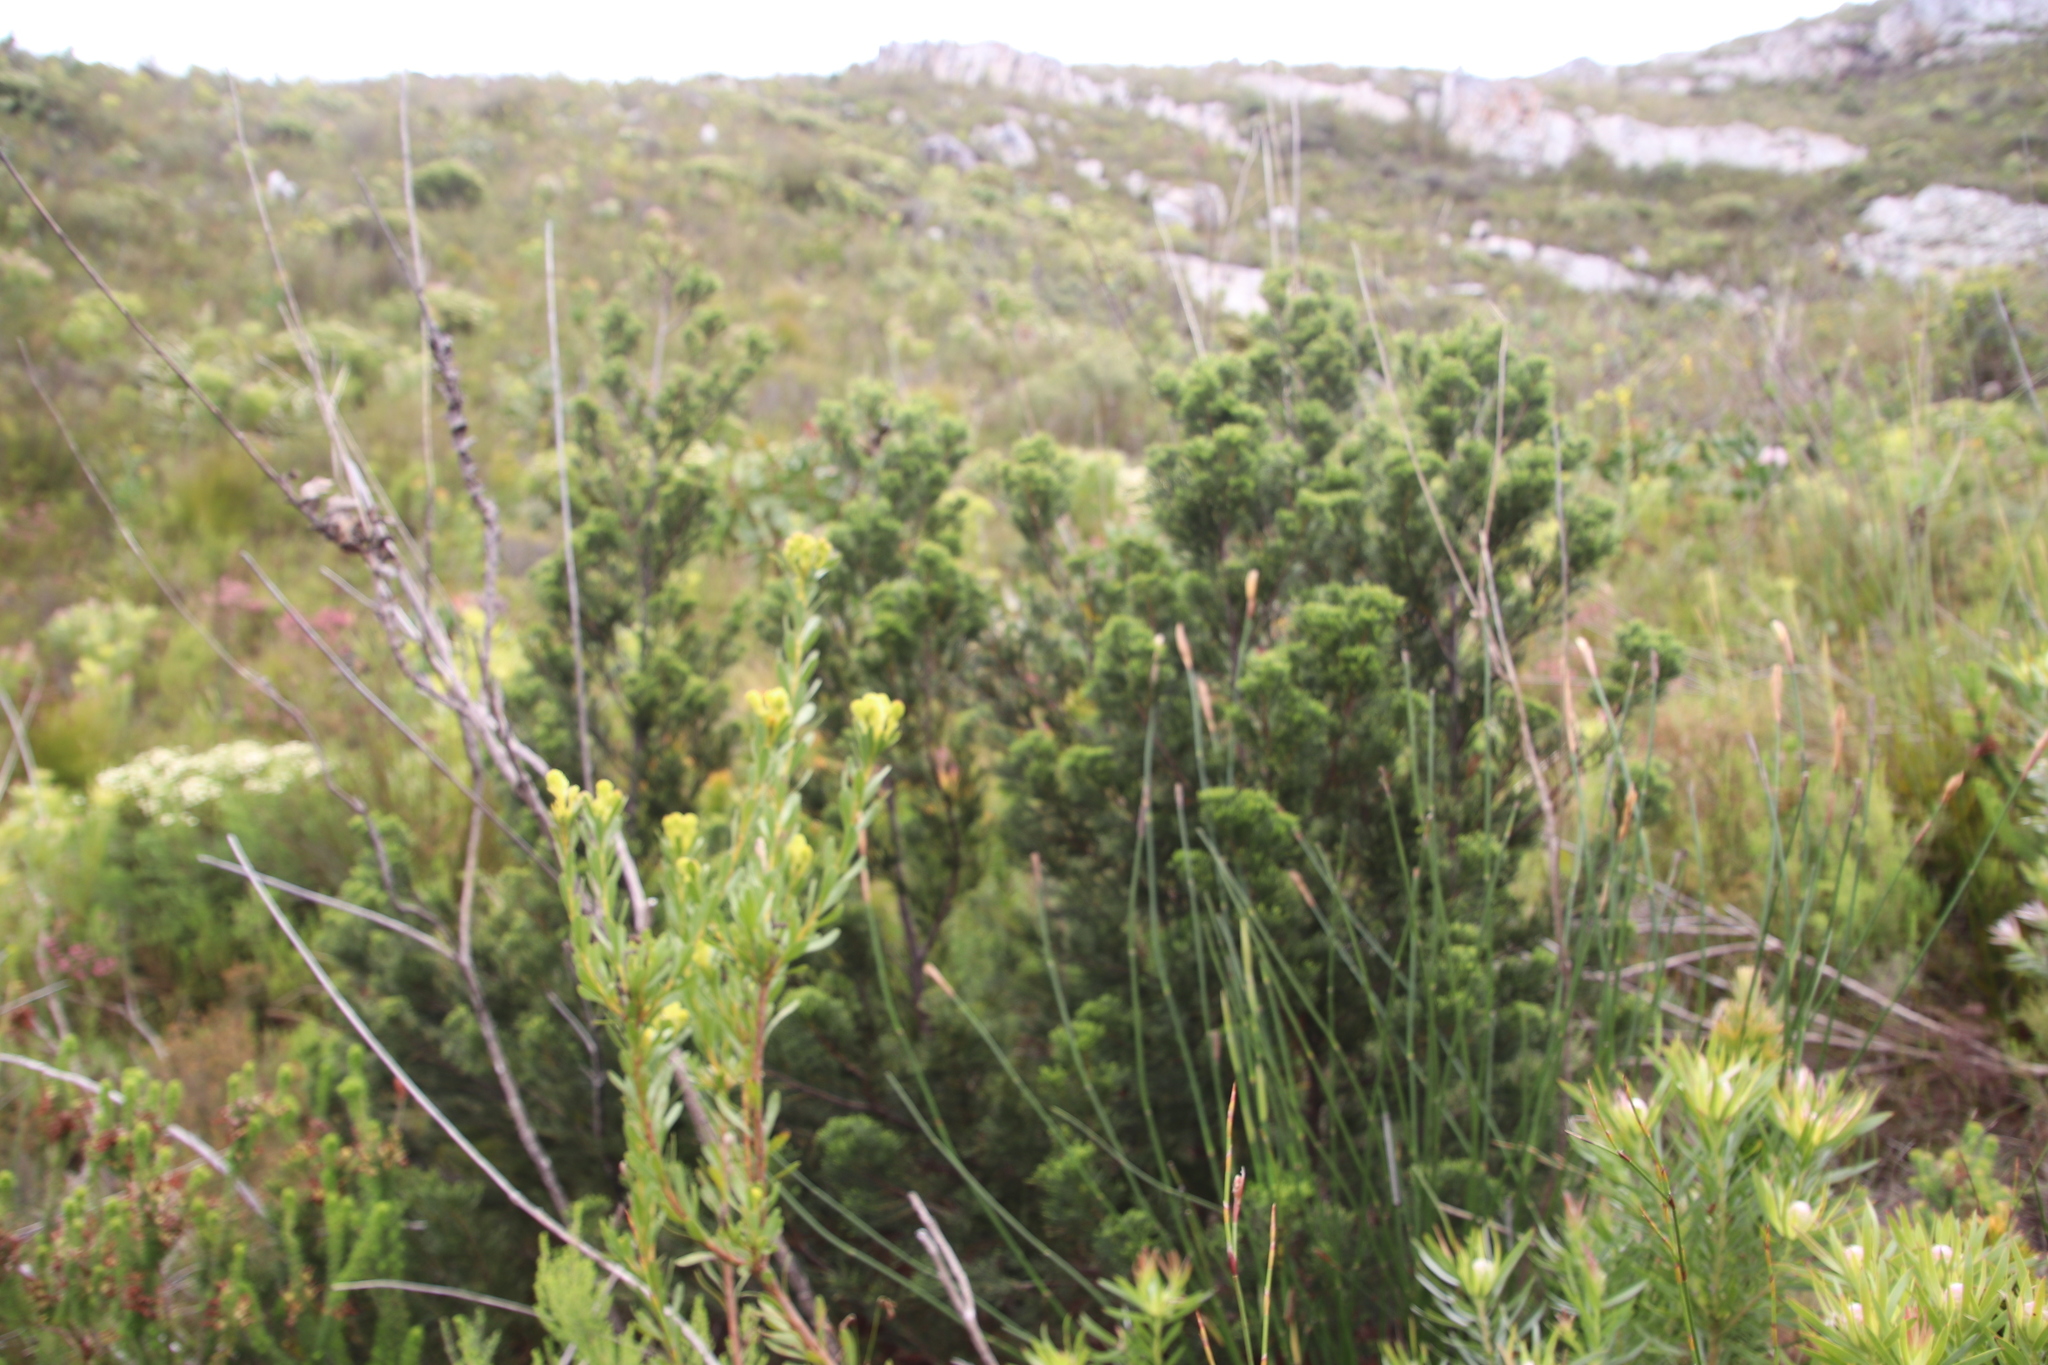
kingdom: Plantae
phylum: Tracheophyta
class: Pinopsida
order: Pinales
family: Cupressaceae
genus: Widdringtonia
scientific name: Widdringtonia nodiflora
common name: Cape cypress
